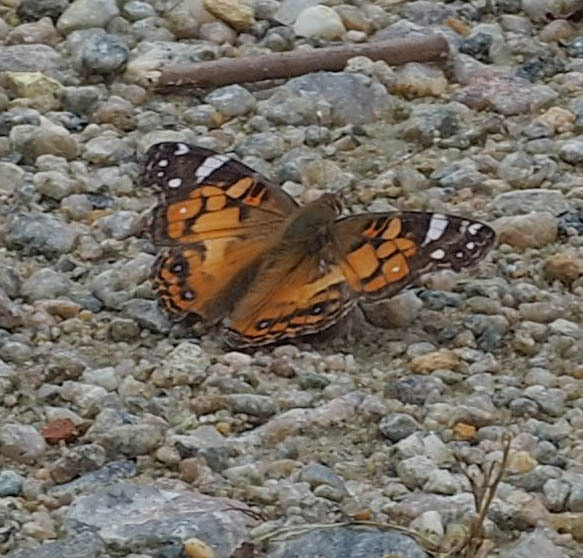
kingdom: Animalia
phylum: Arthropoda
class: Insecta
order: Lepidoptera
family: Nymphalidae
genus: Vanessa
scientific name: Vanessa virginiensis
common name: American lady
